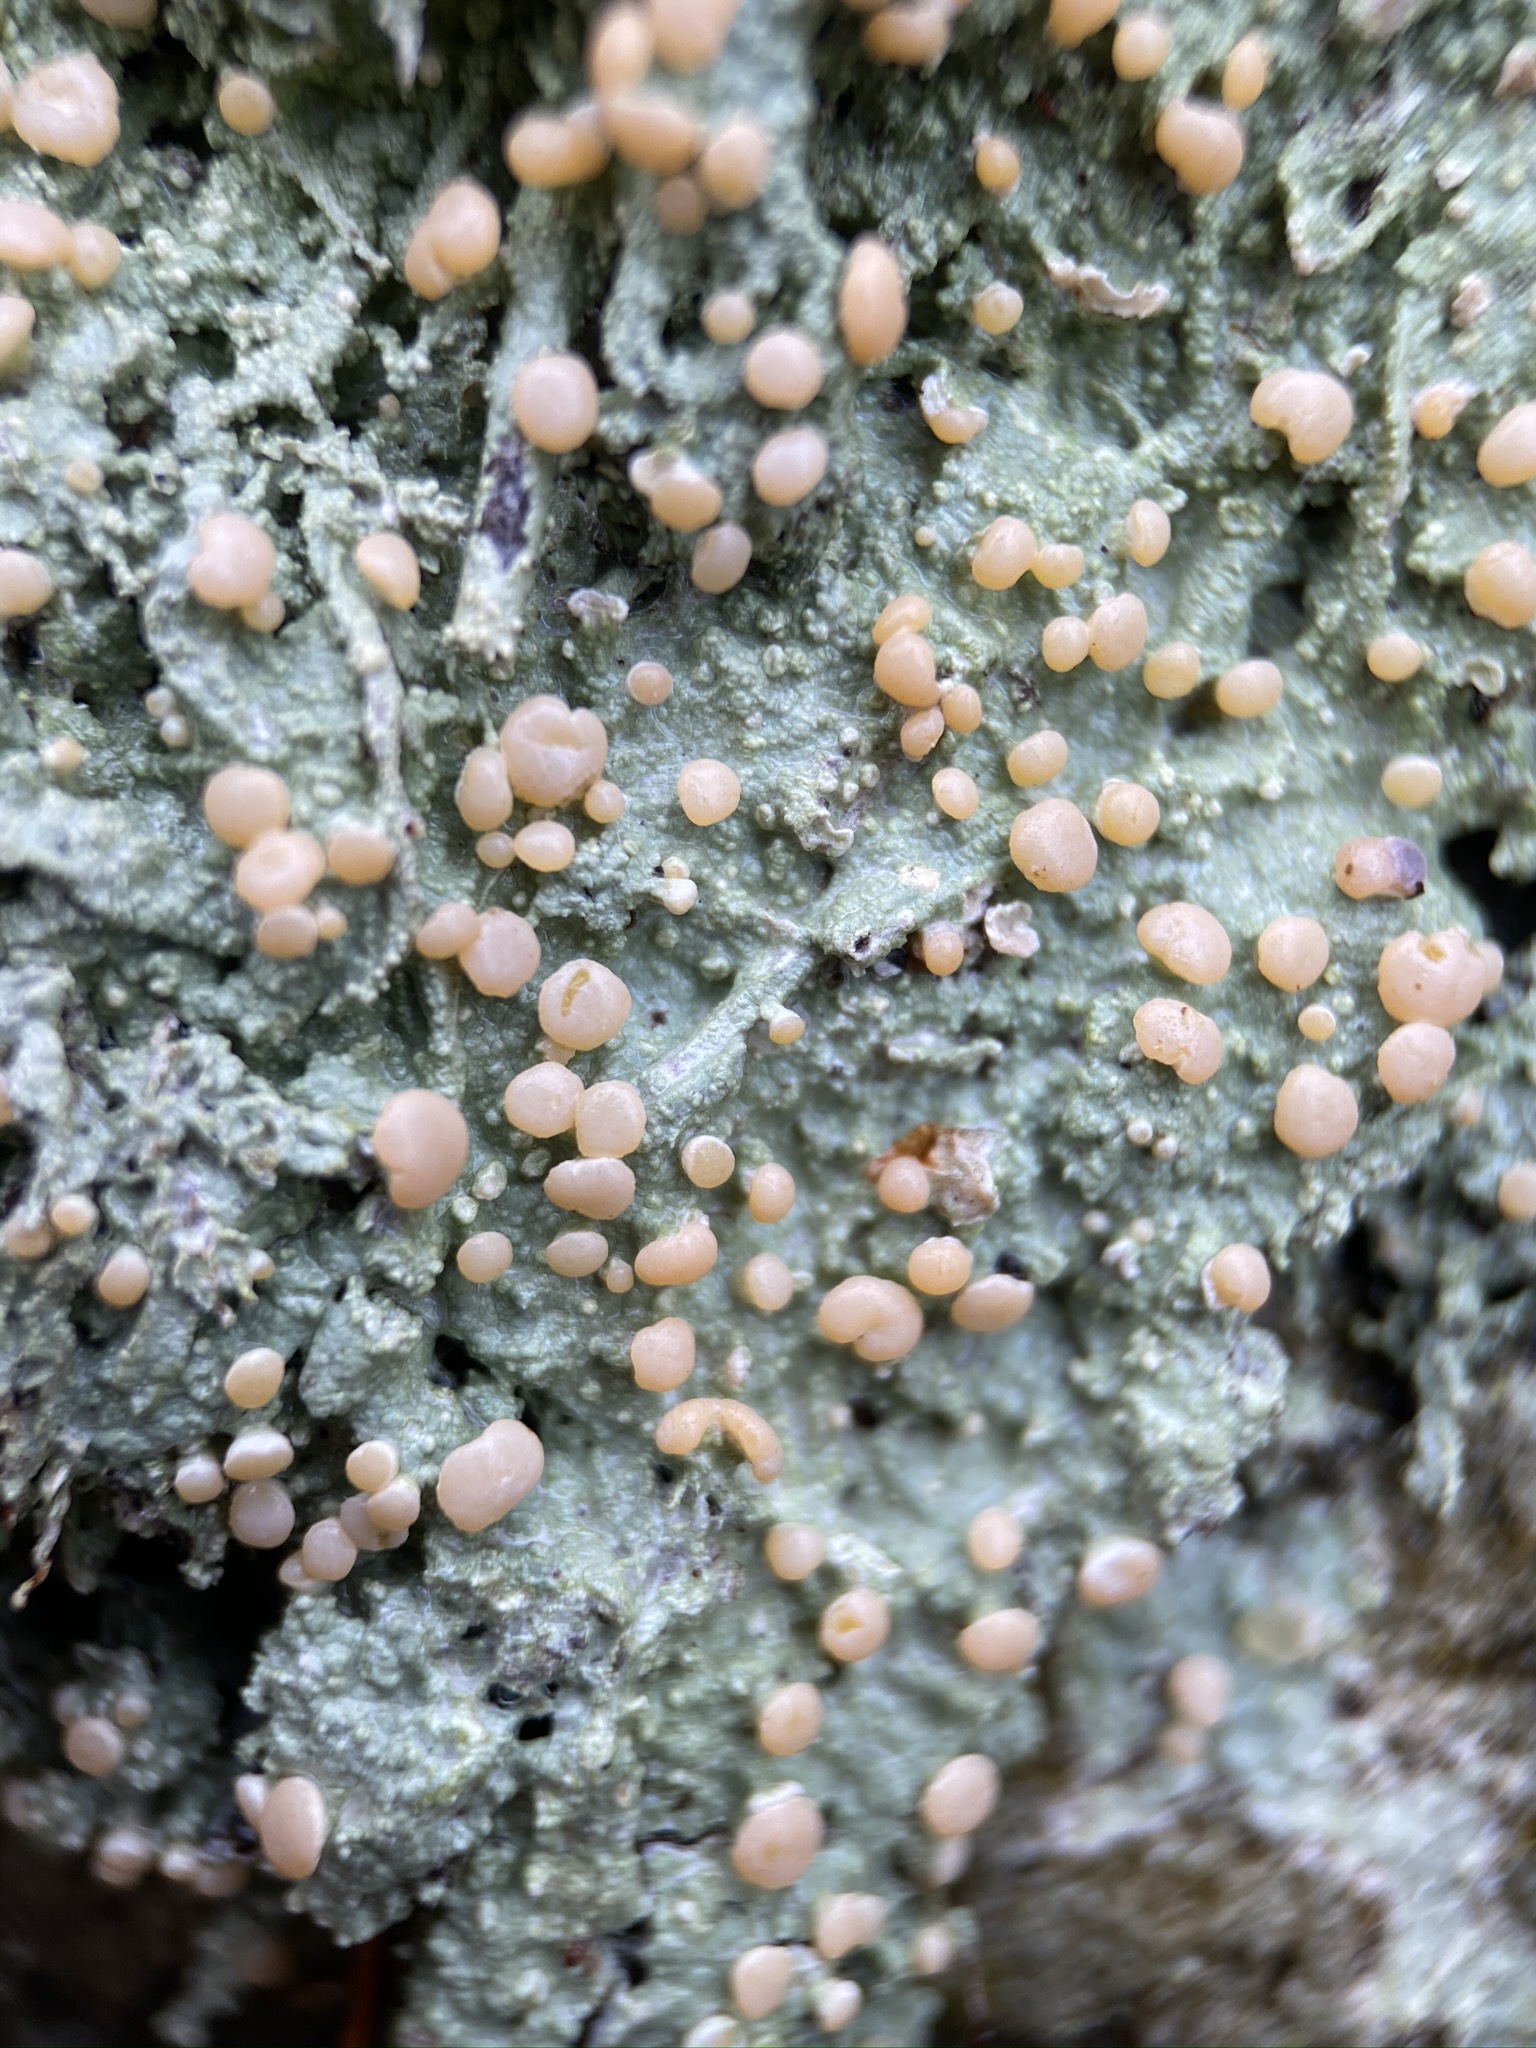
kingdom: Fungi
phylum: Ascomycota
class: Lecanoromycetes
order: Pertusariales
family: Icmadophilaceae
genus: Icmadophila
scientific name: Icmadophila ericetorum
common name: Candy lichen
